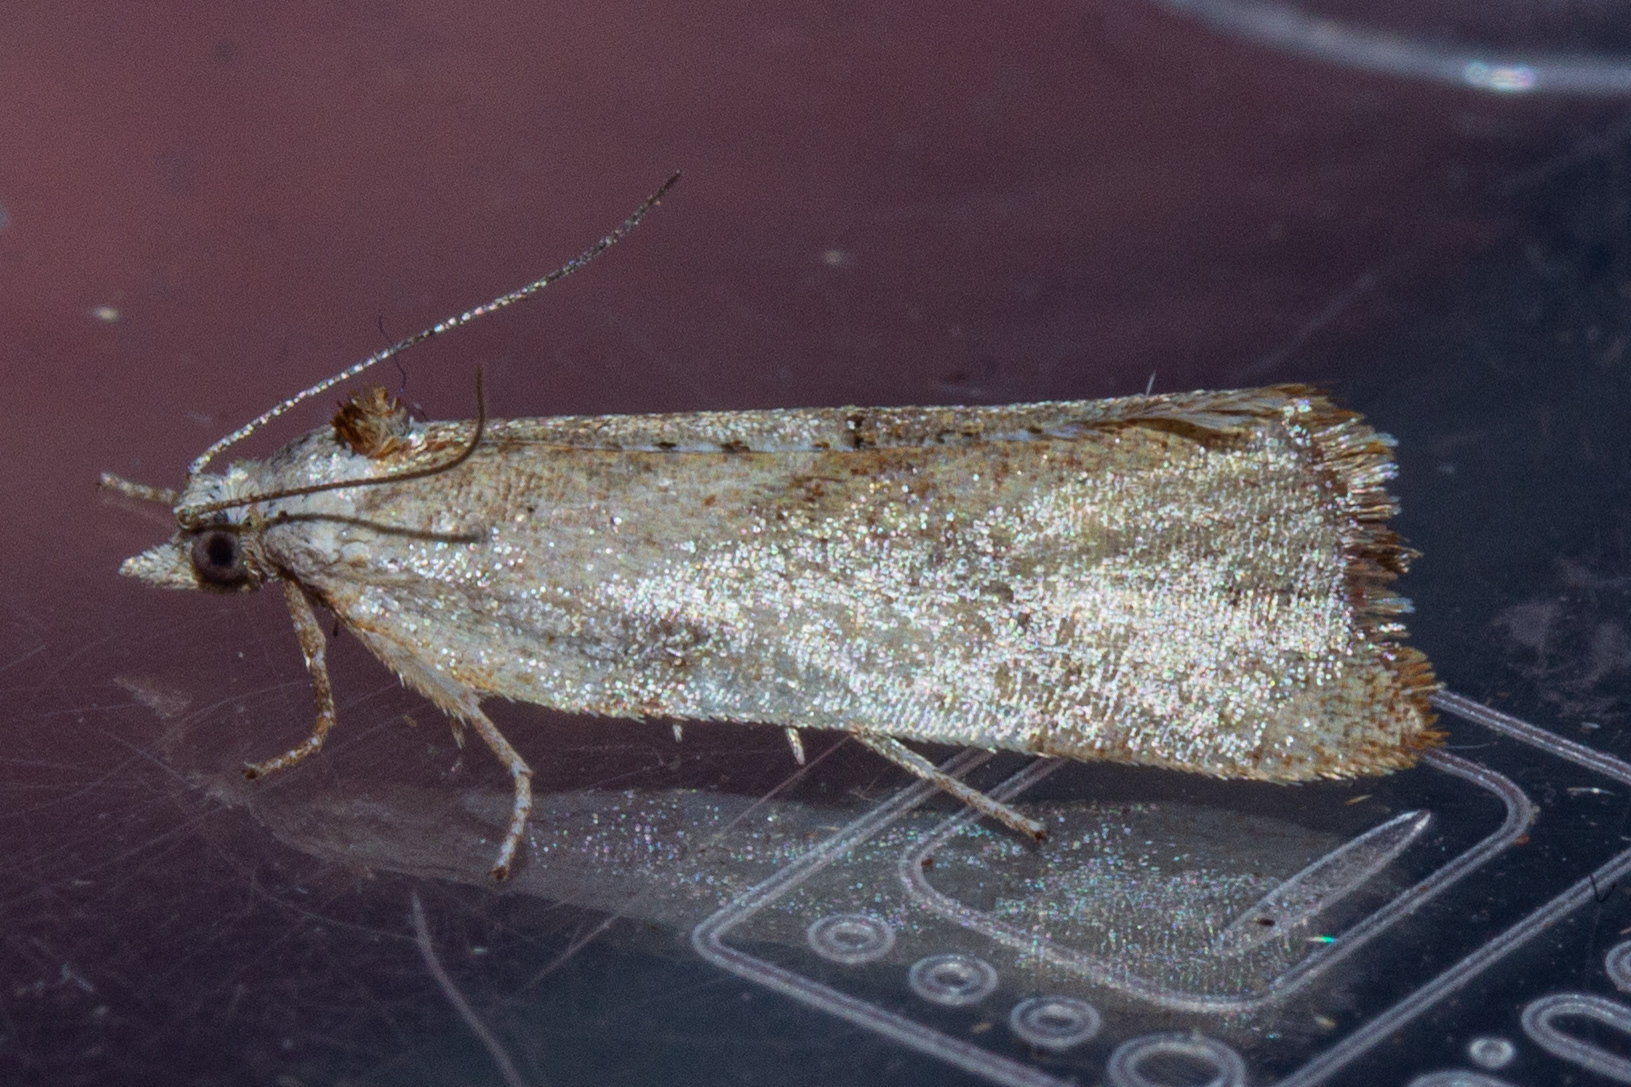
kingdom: Animalia
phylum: Arthropoda
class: Insecta
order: Lepidoptera
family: Tortricidae
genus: Pyrgotis
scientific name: Pyrgotis plagiatana
